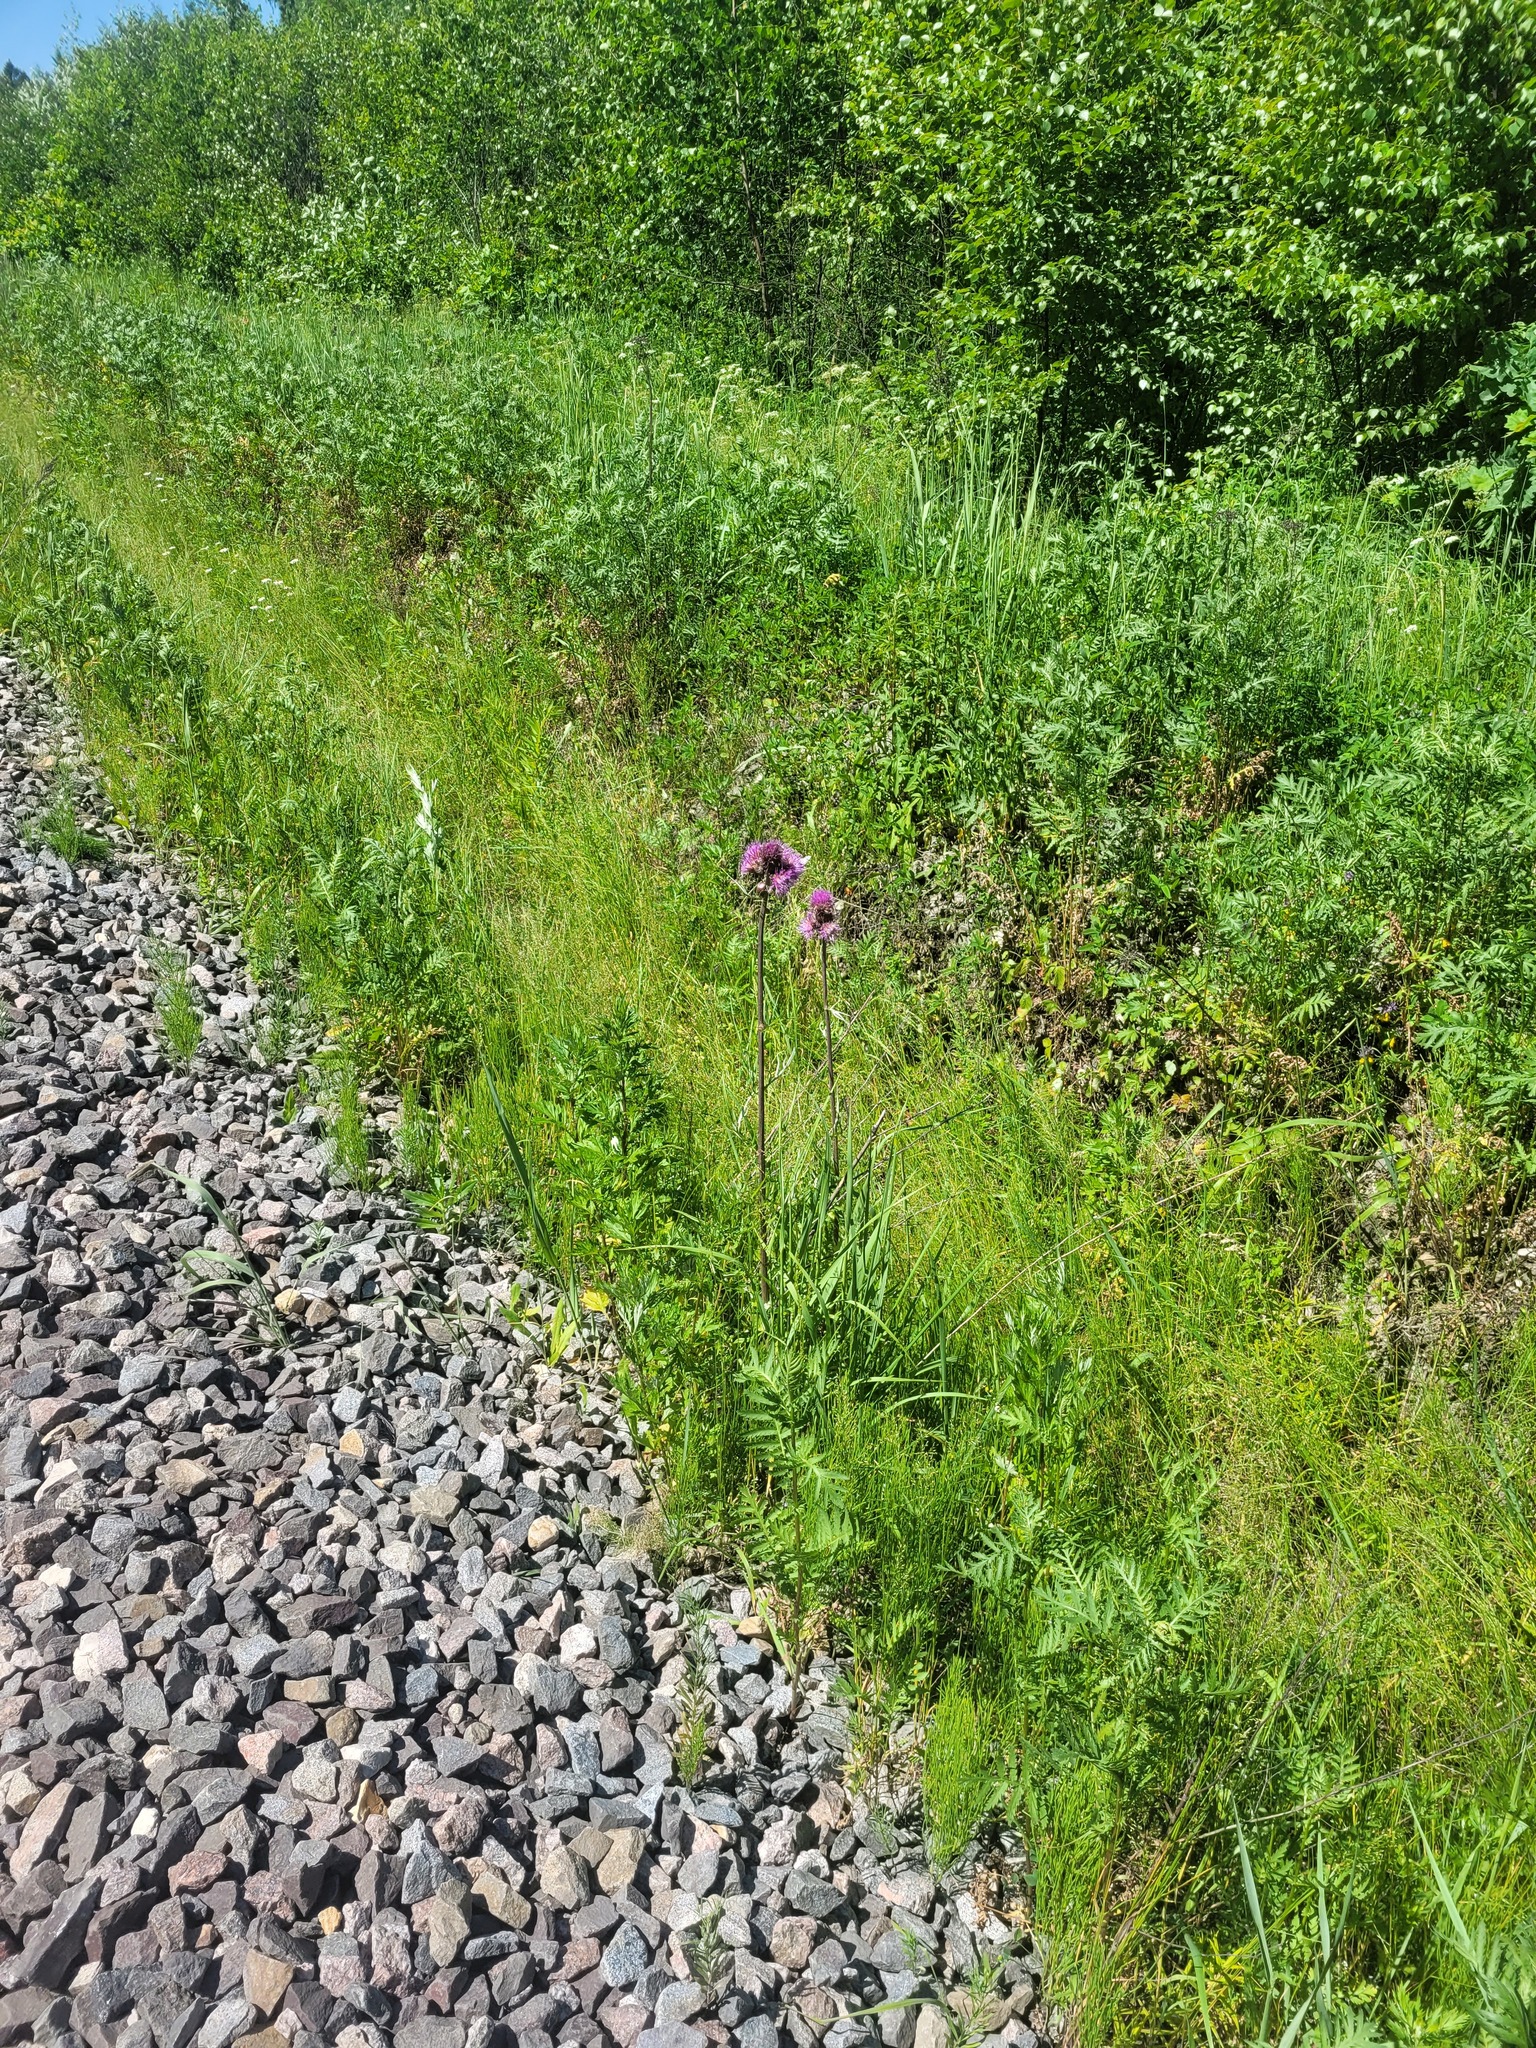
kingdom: Plantae
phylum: Tracheophyta
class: Magnoliopsida
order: Asterales
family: Asteraceae
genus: Cirsium
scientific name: Cirsium heterophyllum
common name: Melancholy thistle
